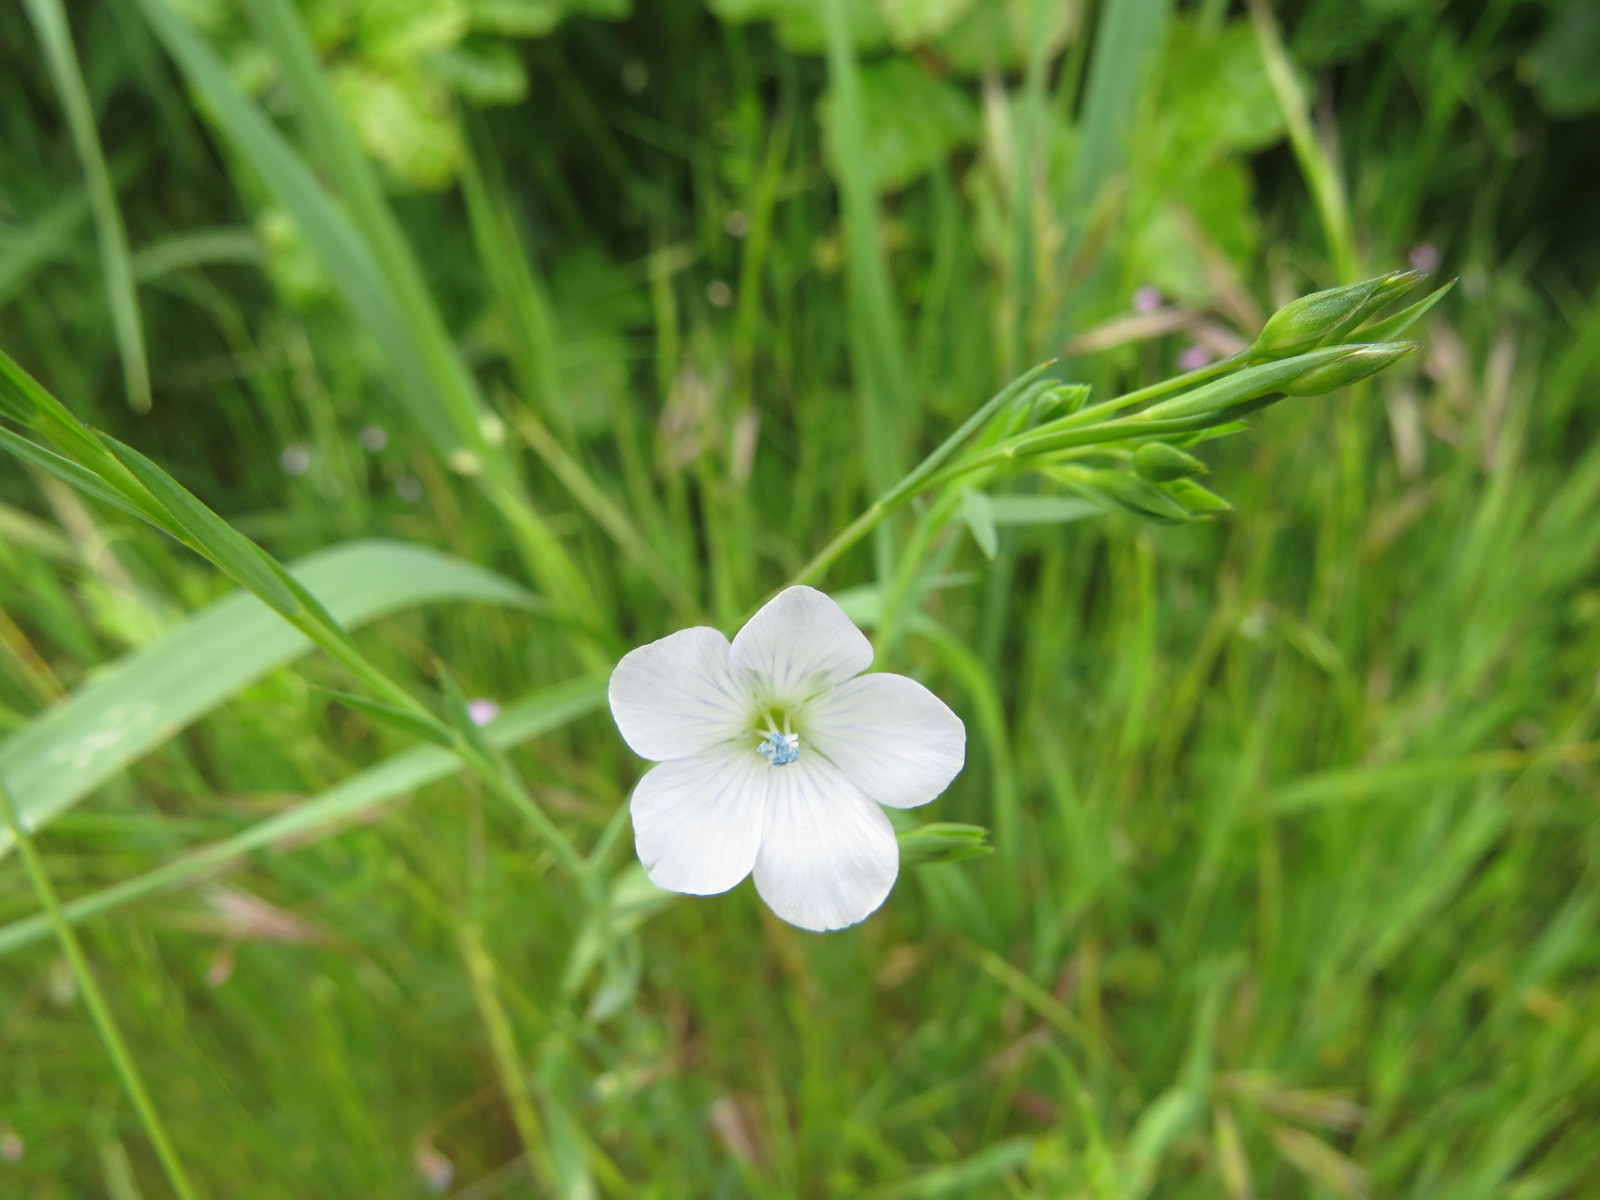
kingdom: Plantae
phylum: Tracheophyta
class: Magnoliopsida
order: Malpighiales
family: Linaceae
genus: Linum
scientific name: Linum bienne
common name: Pale flax
